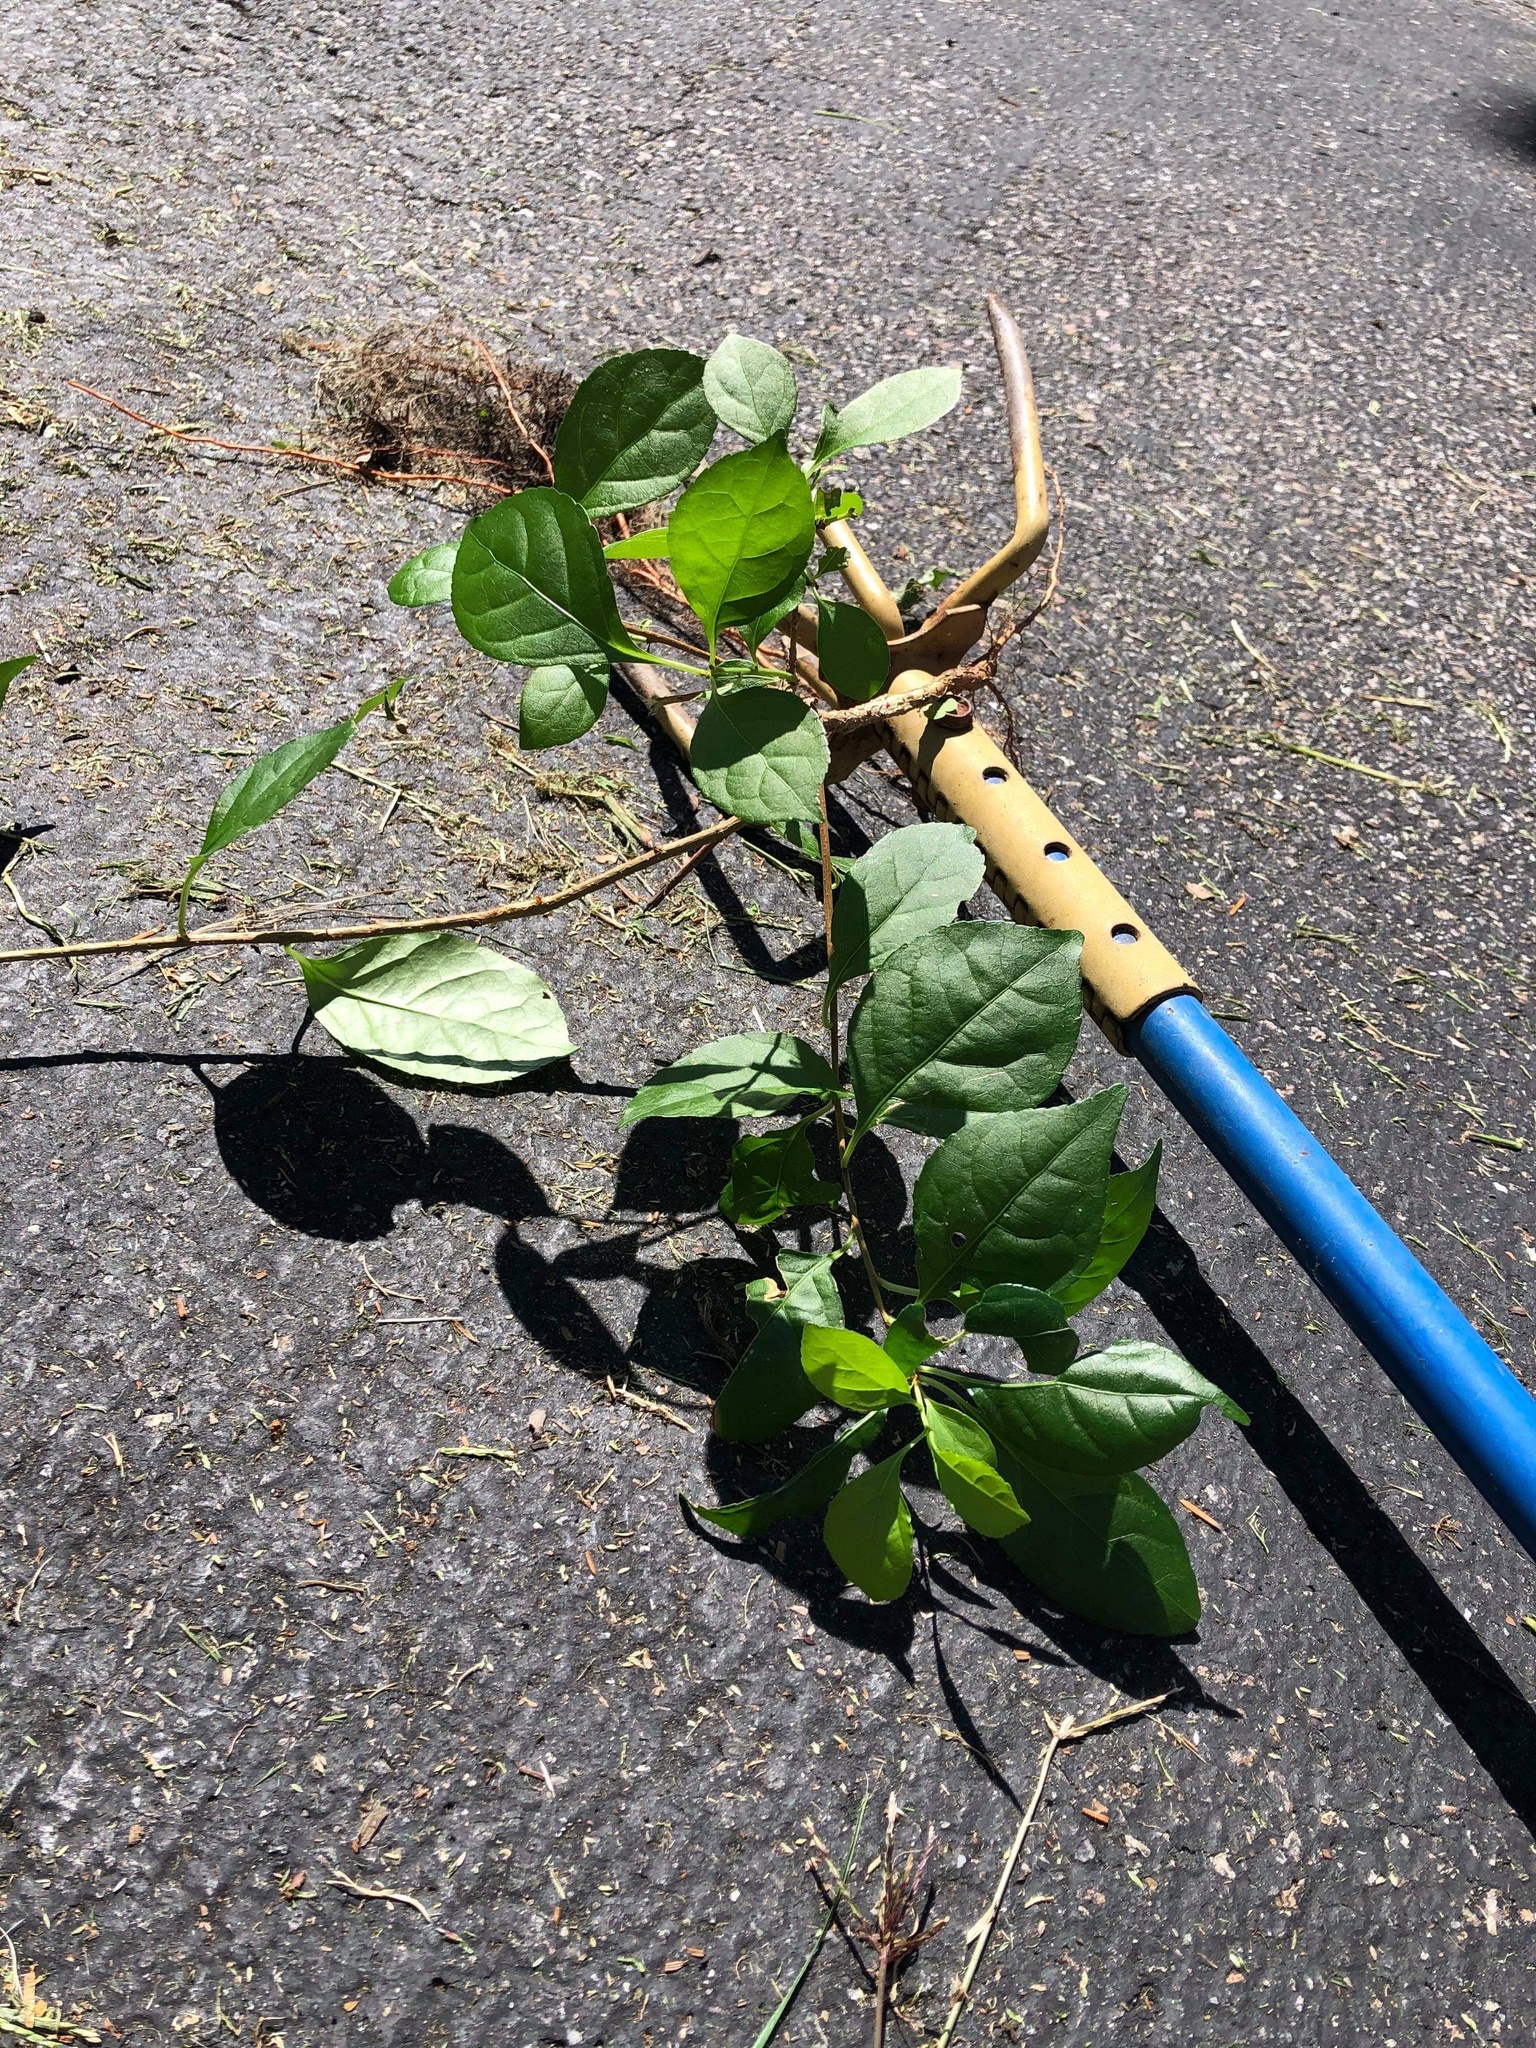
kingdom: Plantae
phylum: Tracheophyta
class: Magnoliopsida
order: Celastrales
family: Celastraceae
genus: Celastrus
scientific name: Celastrus orbiculatus
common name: Oriental bittersweet
